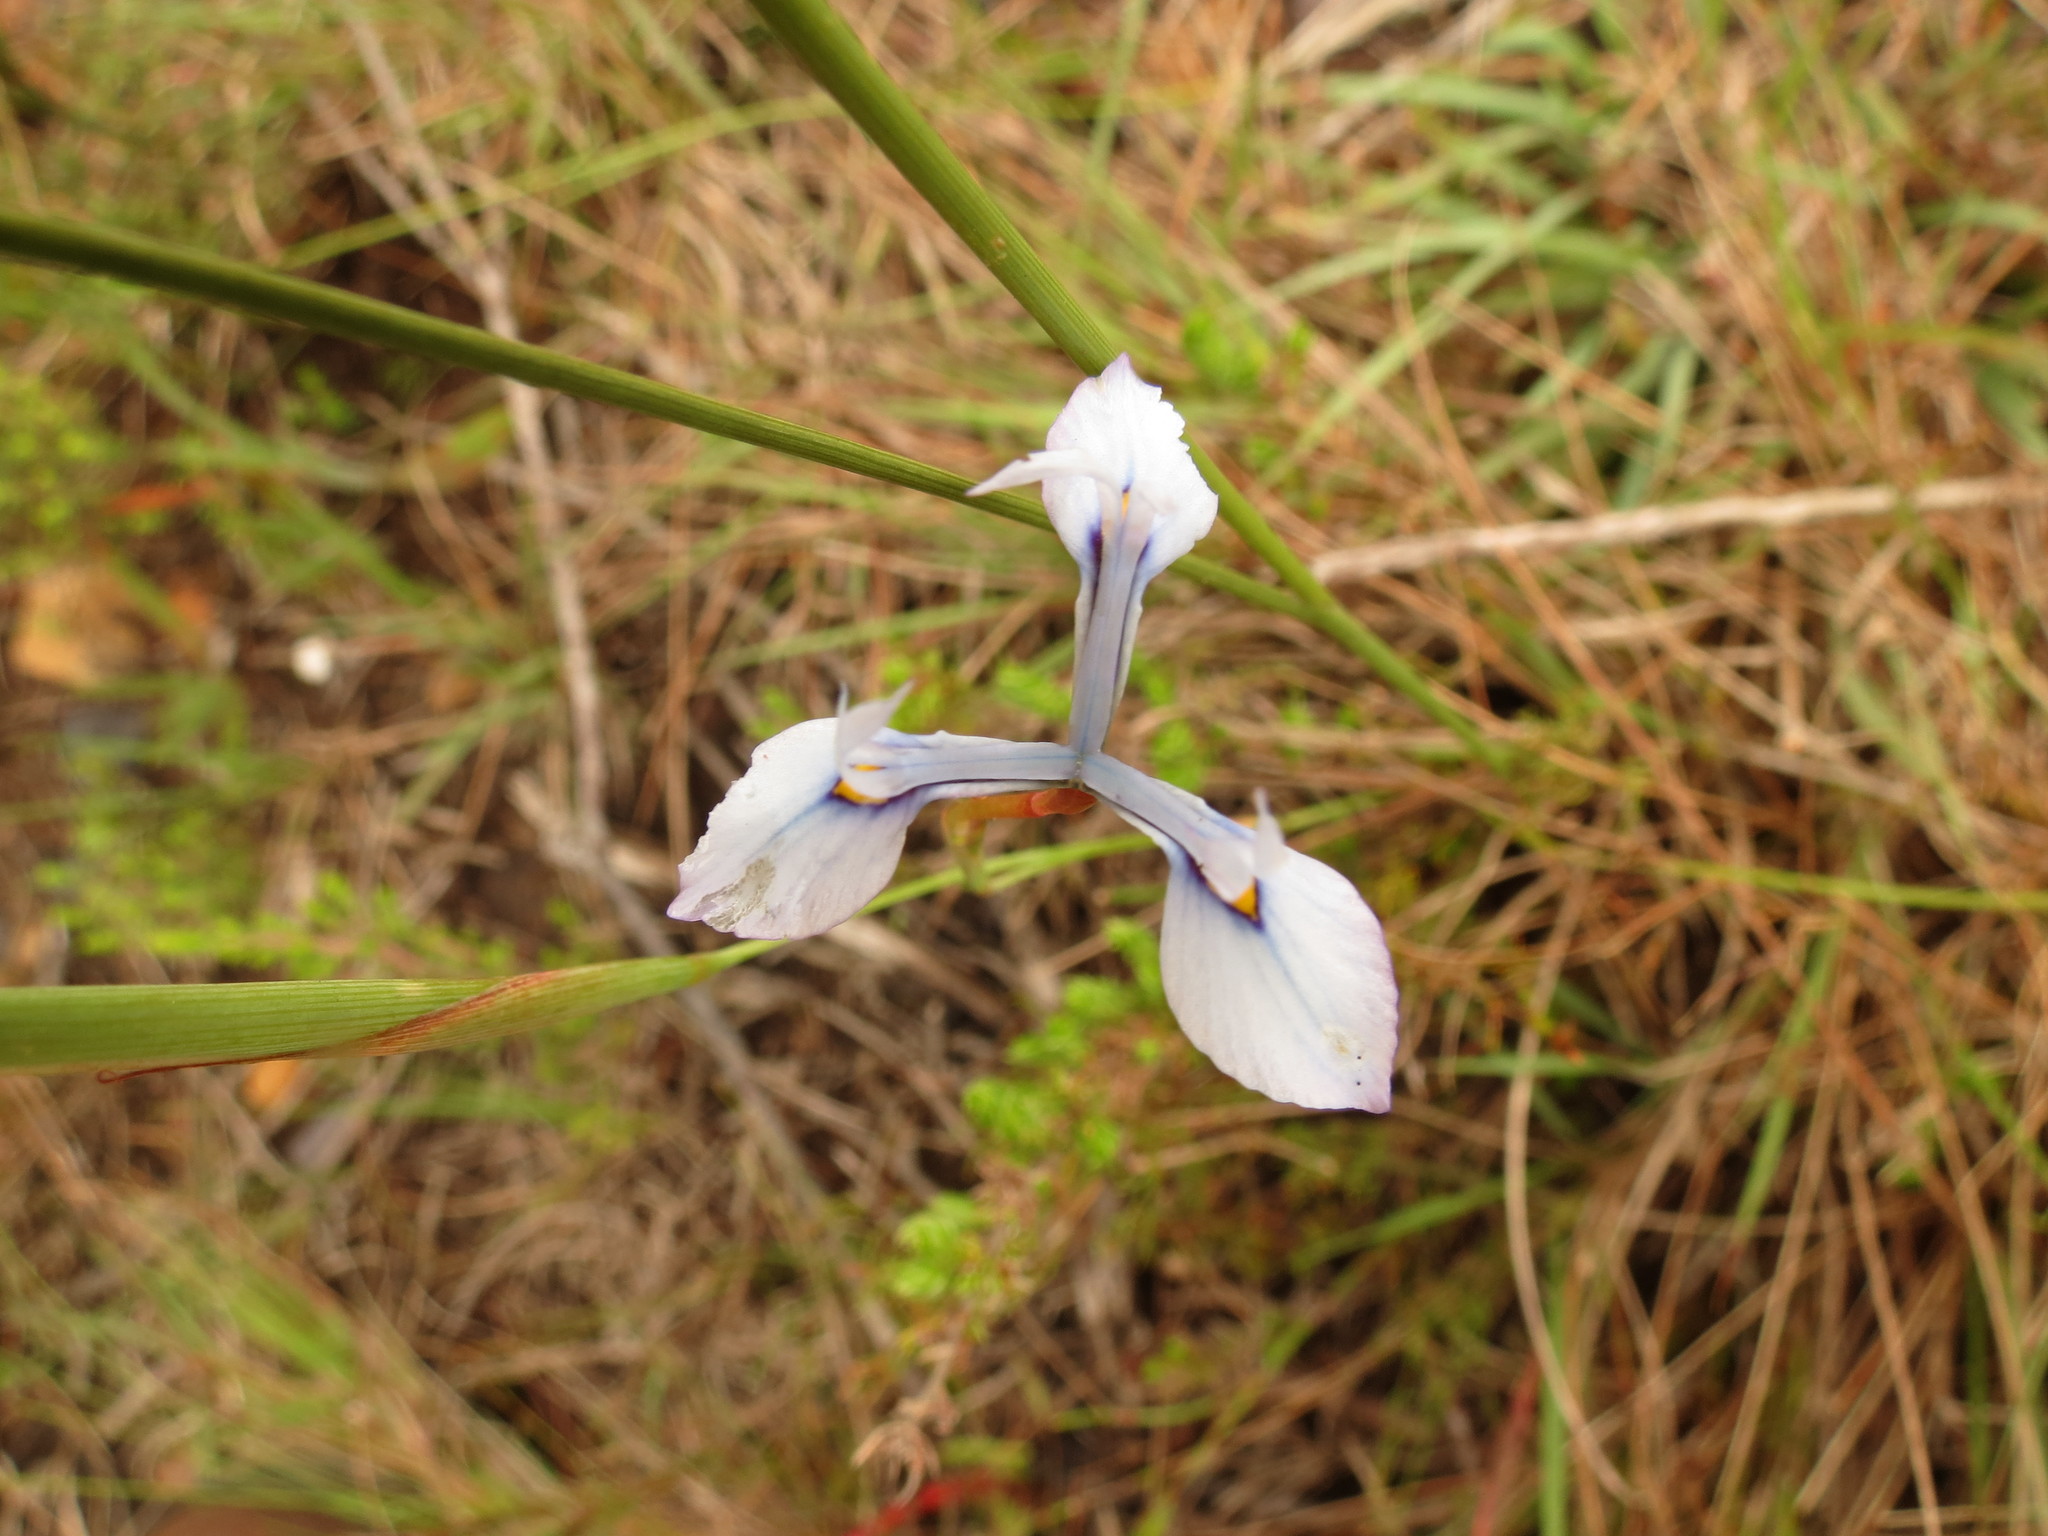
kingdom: Plantae
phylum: Tracheophyta
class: Liliopsida
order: Asparagales
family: Iridaceae
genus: Moraea
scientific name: Moraea tripetala
